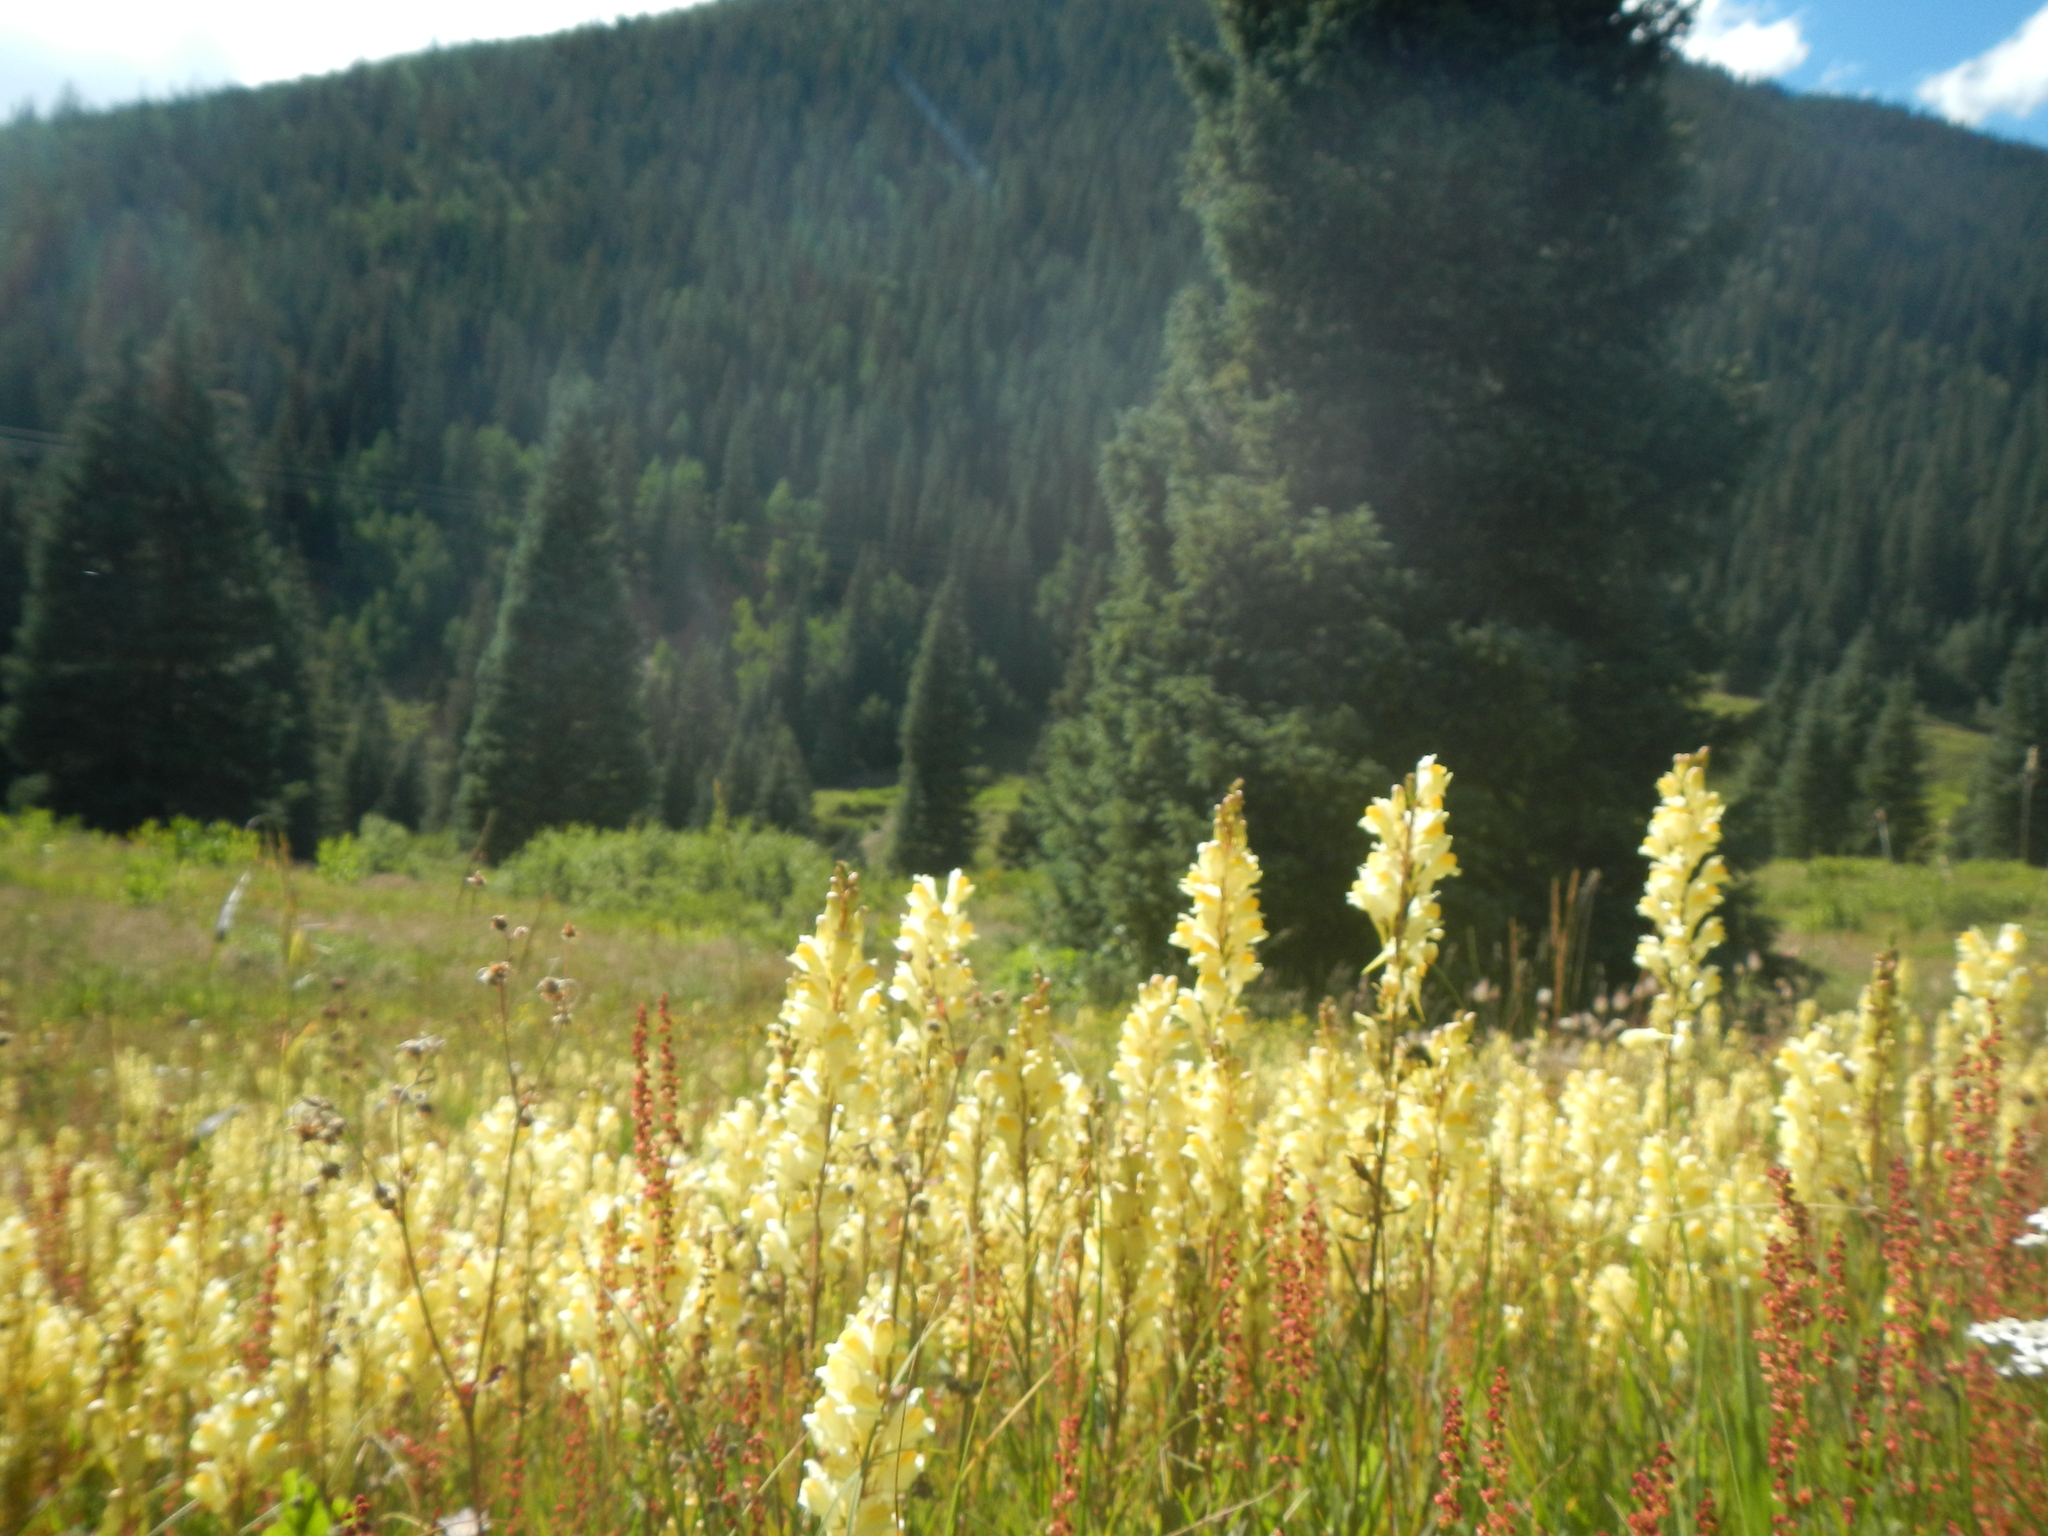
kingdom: Plantae
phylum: Tracheophyta
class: Magnoliopsida
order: Lamiales
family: Plantaginaceae
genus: Linaria
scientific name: Linaria vulgaris
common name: Butter and eggs
